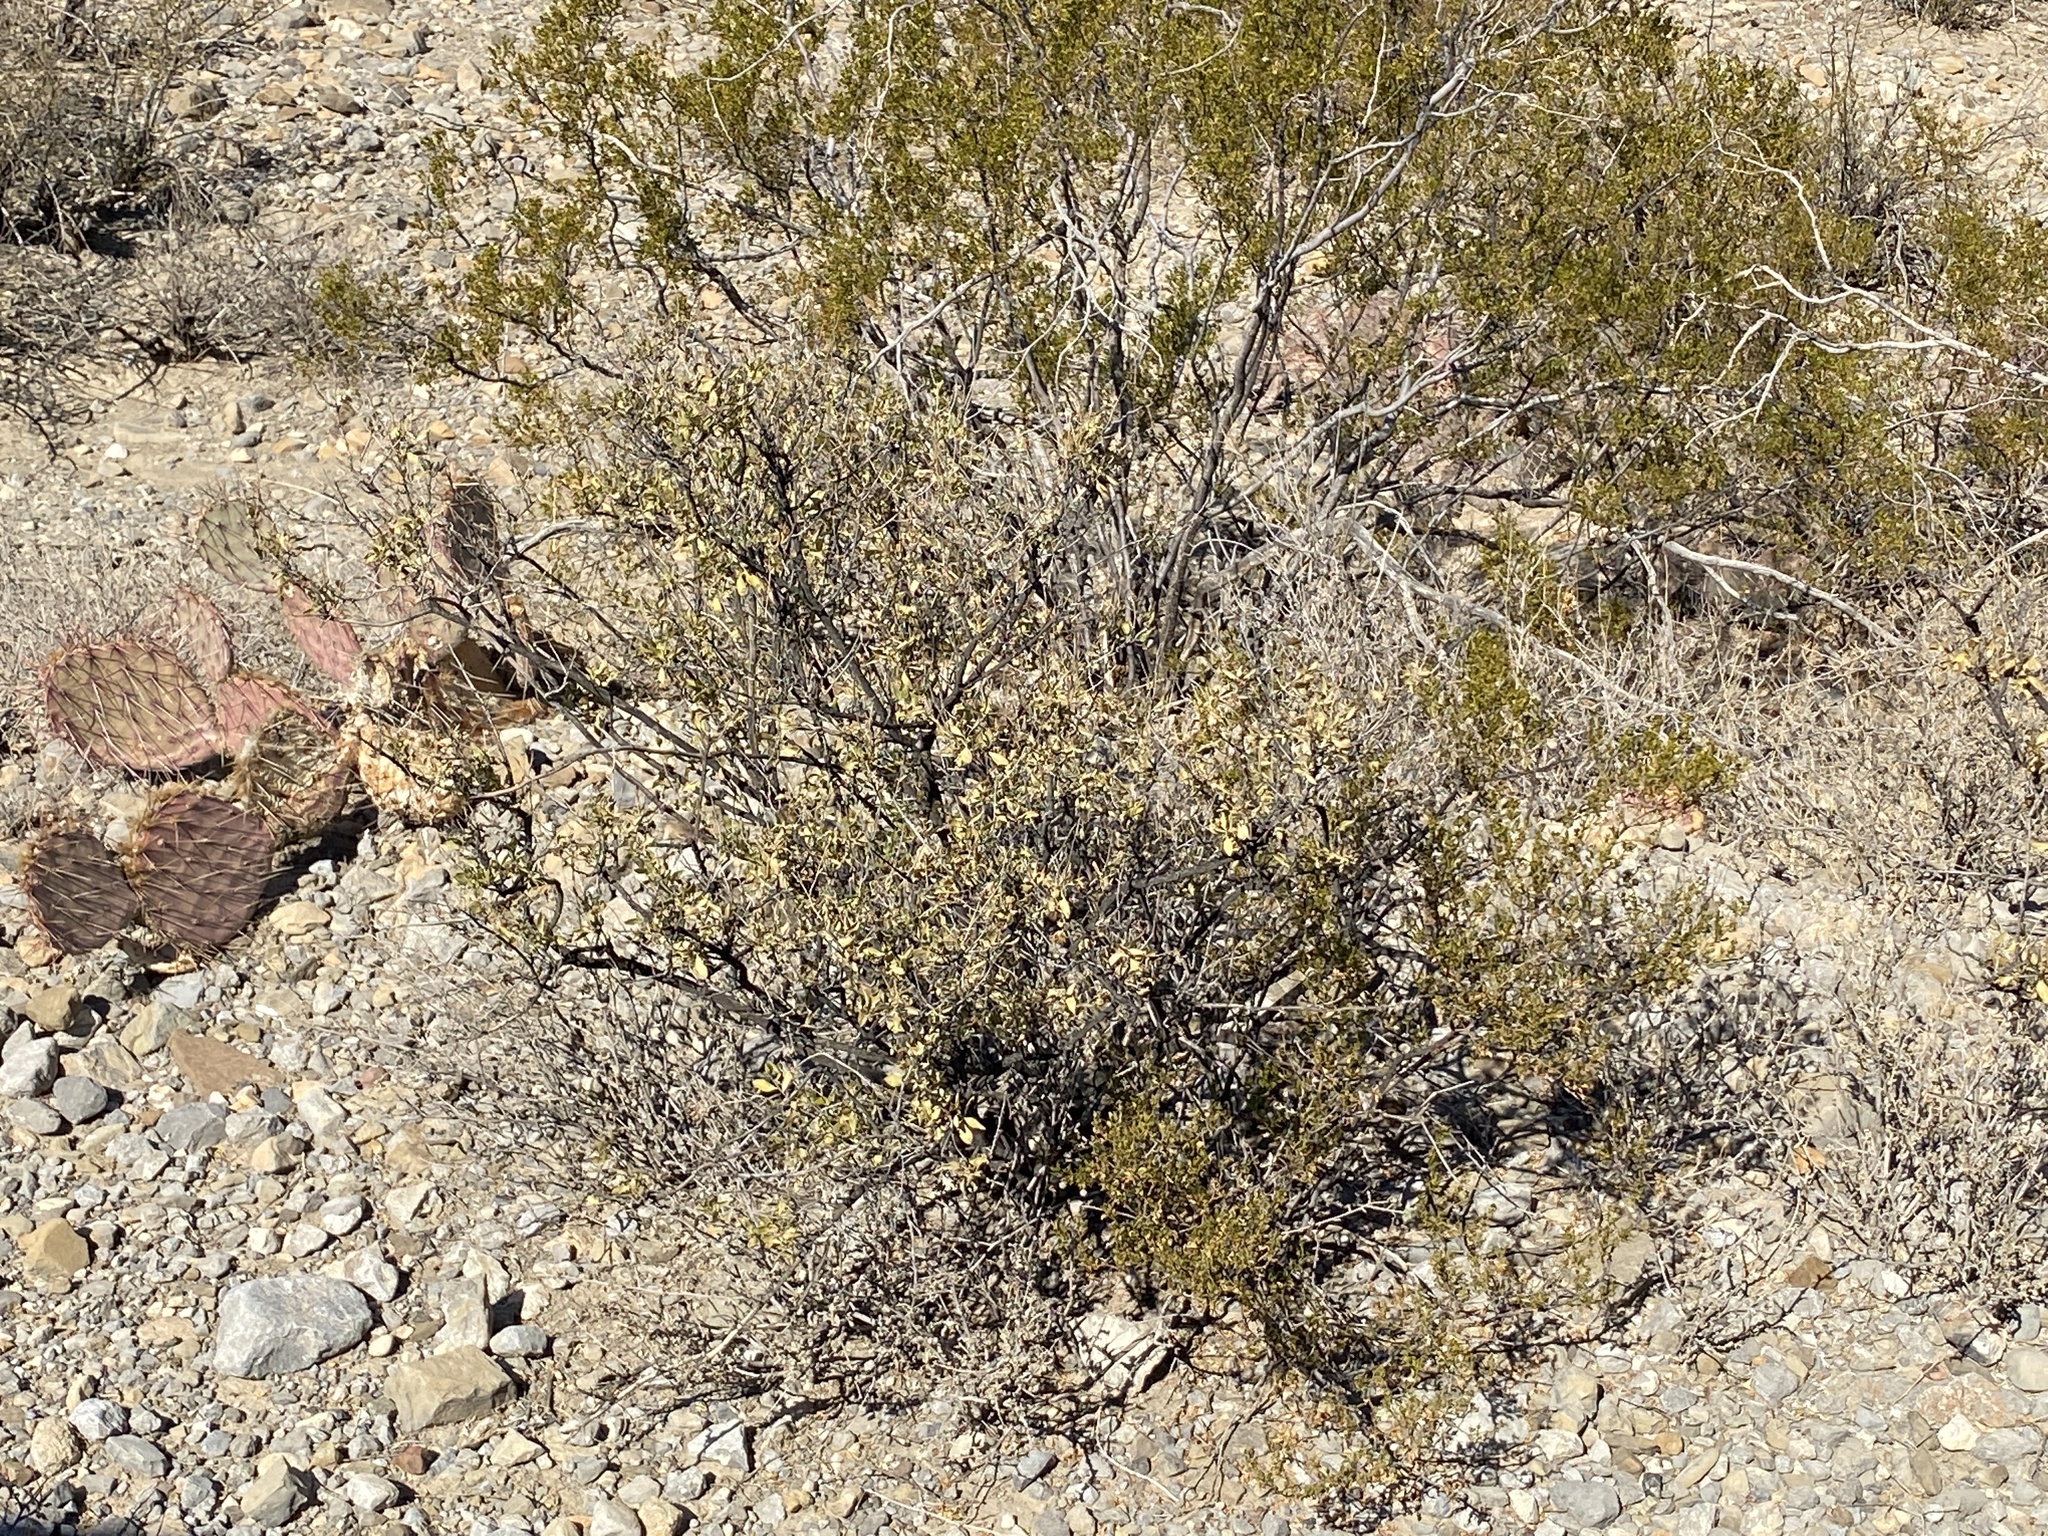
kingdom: Plantae
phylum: Tracheophyta
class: Magnoliopsida
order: Asterales
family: Asteraceae
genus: Flourensia
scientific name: Flourensia cernua
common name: Varnishbush
